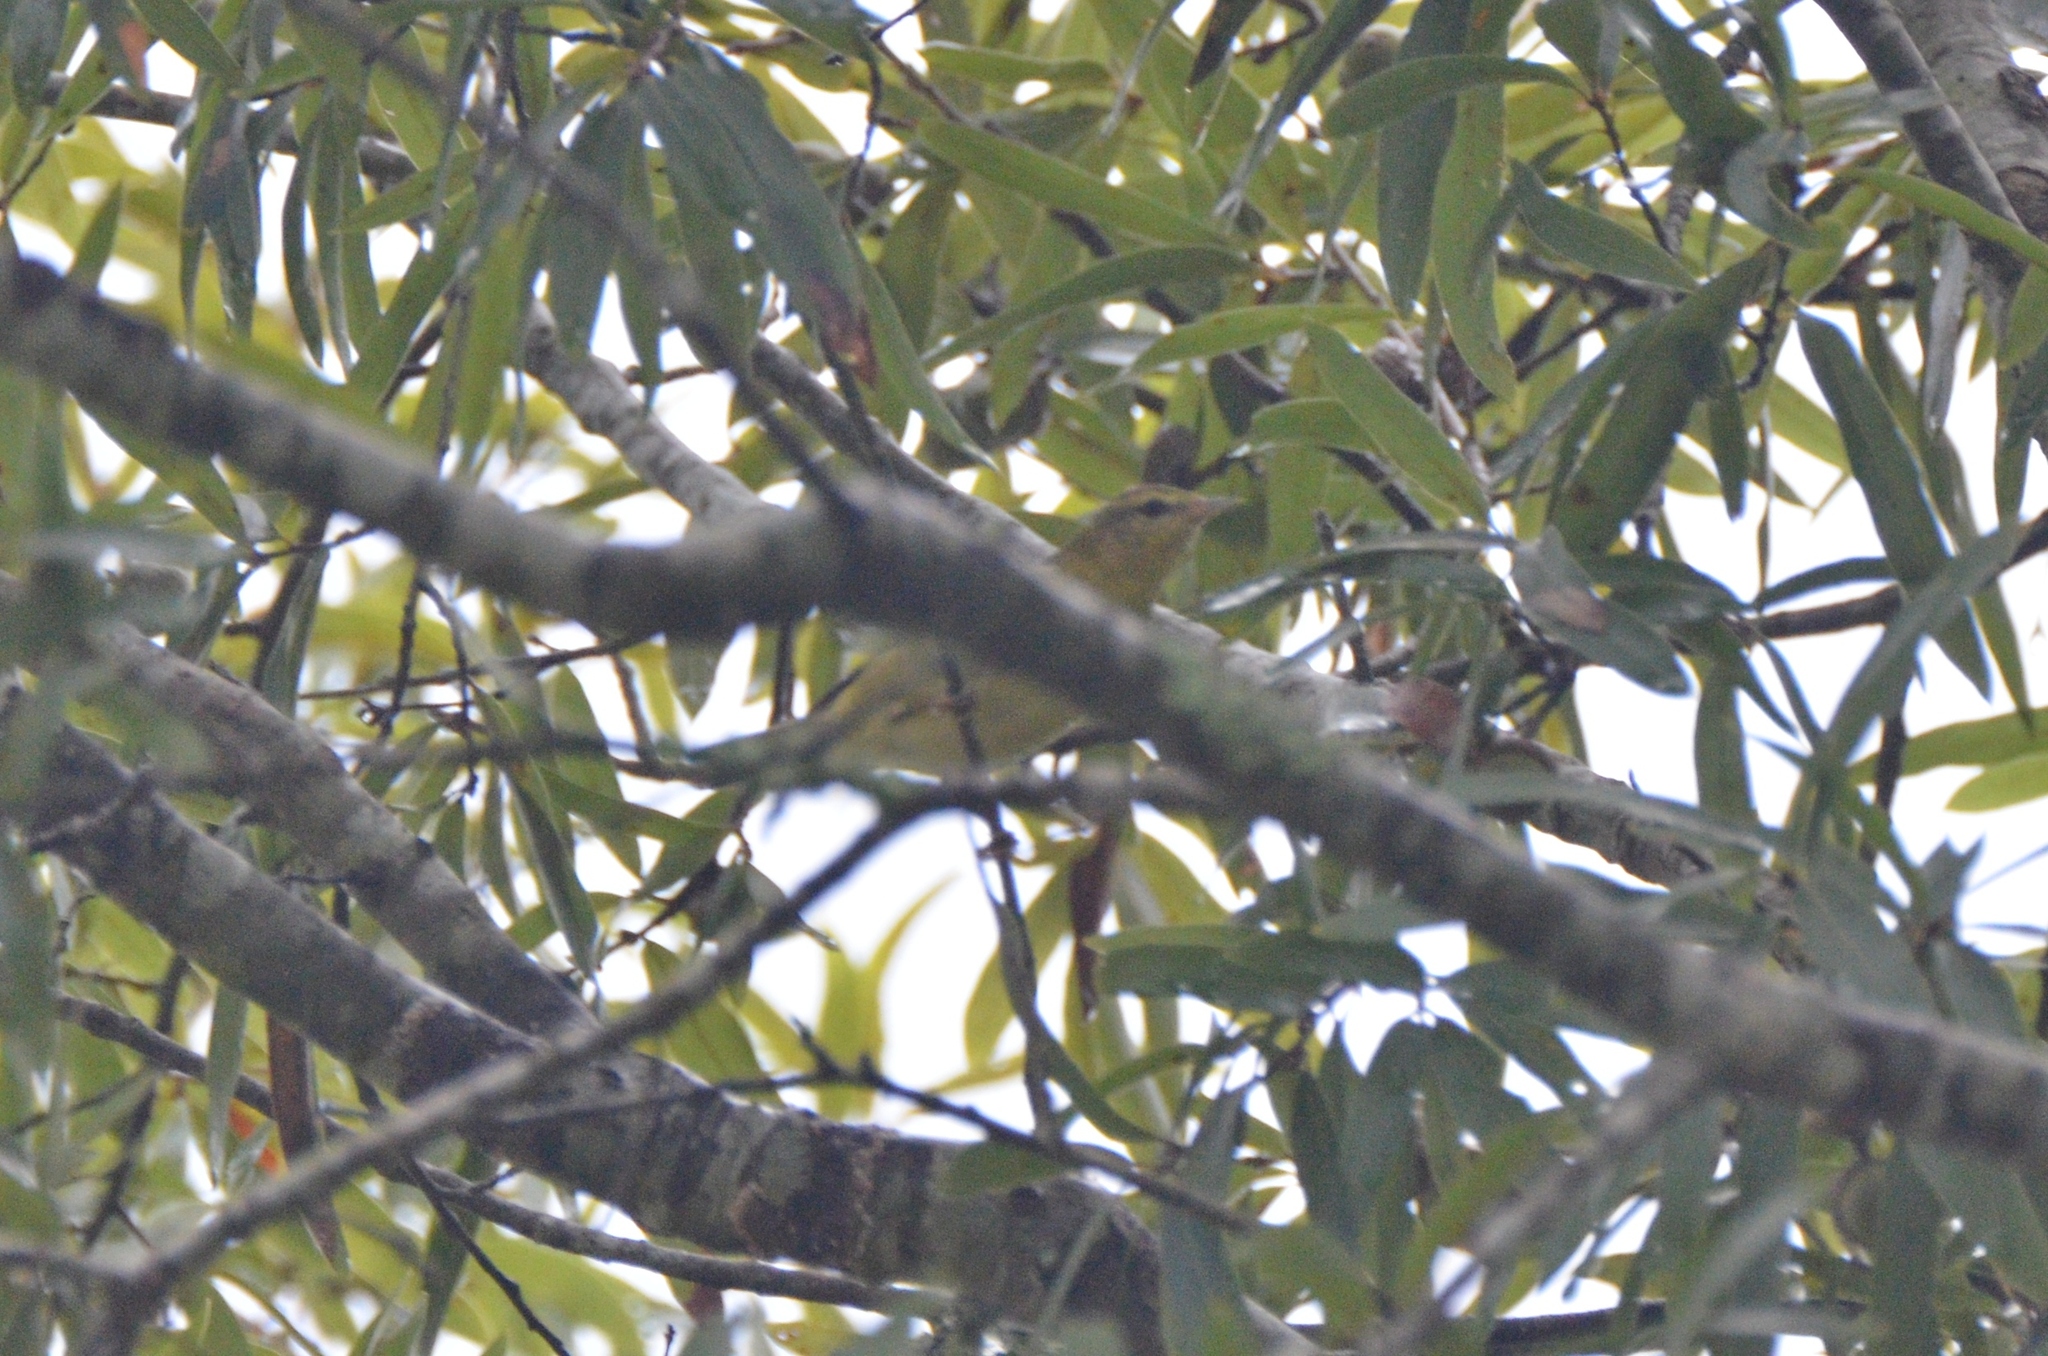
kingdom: Animalia
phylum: Chordata
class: Aves
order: Passeriformes
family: Parulidae
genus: Leiothlypis
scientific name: Leiothlypis peregrina
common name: Tennessee warbler
